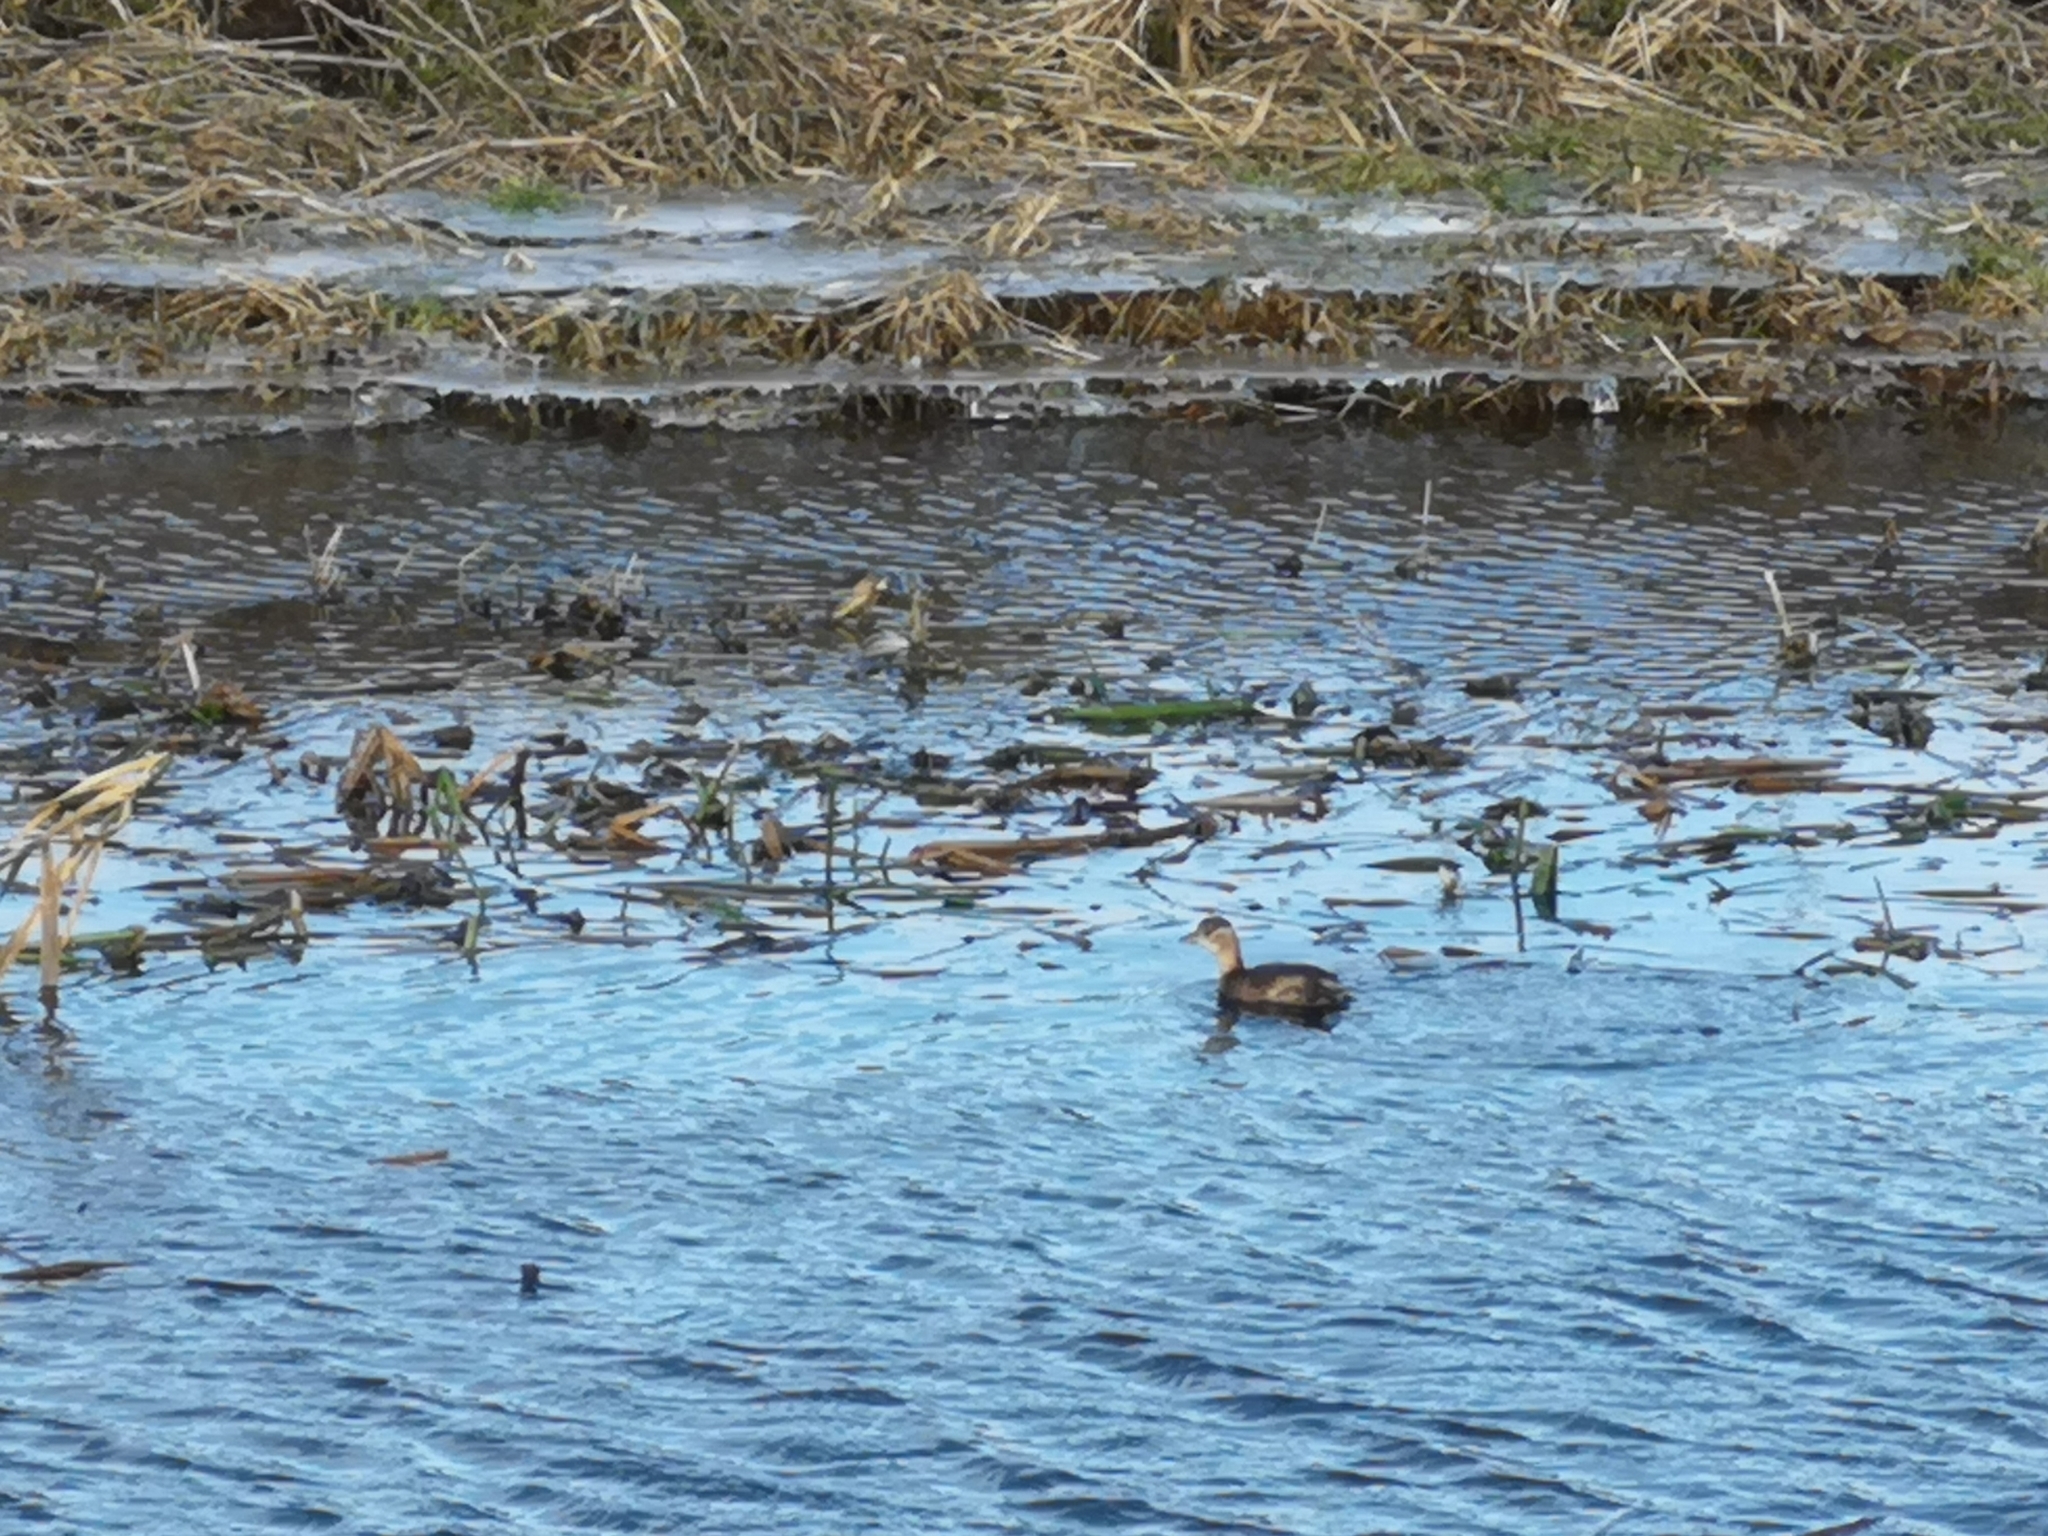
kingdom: Animalia
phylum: Chordata
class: Aves
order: Podicipediformes
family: Podicipedidae
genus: Tachybaptus
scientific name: Tachybaptus ruficollis
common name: Little grebe
